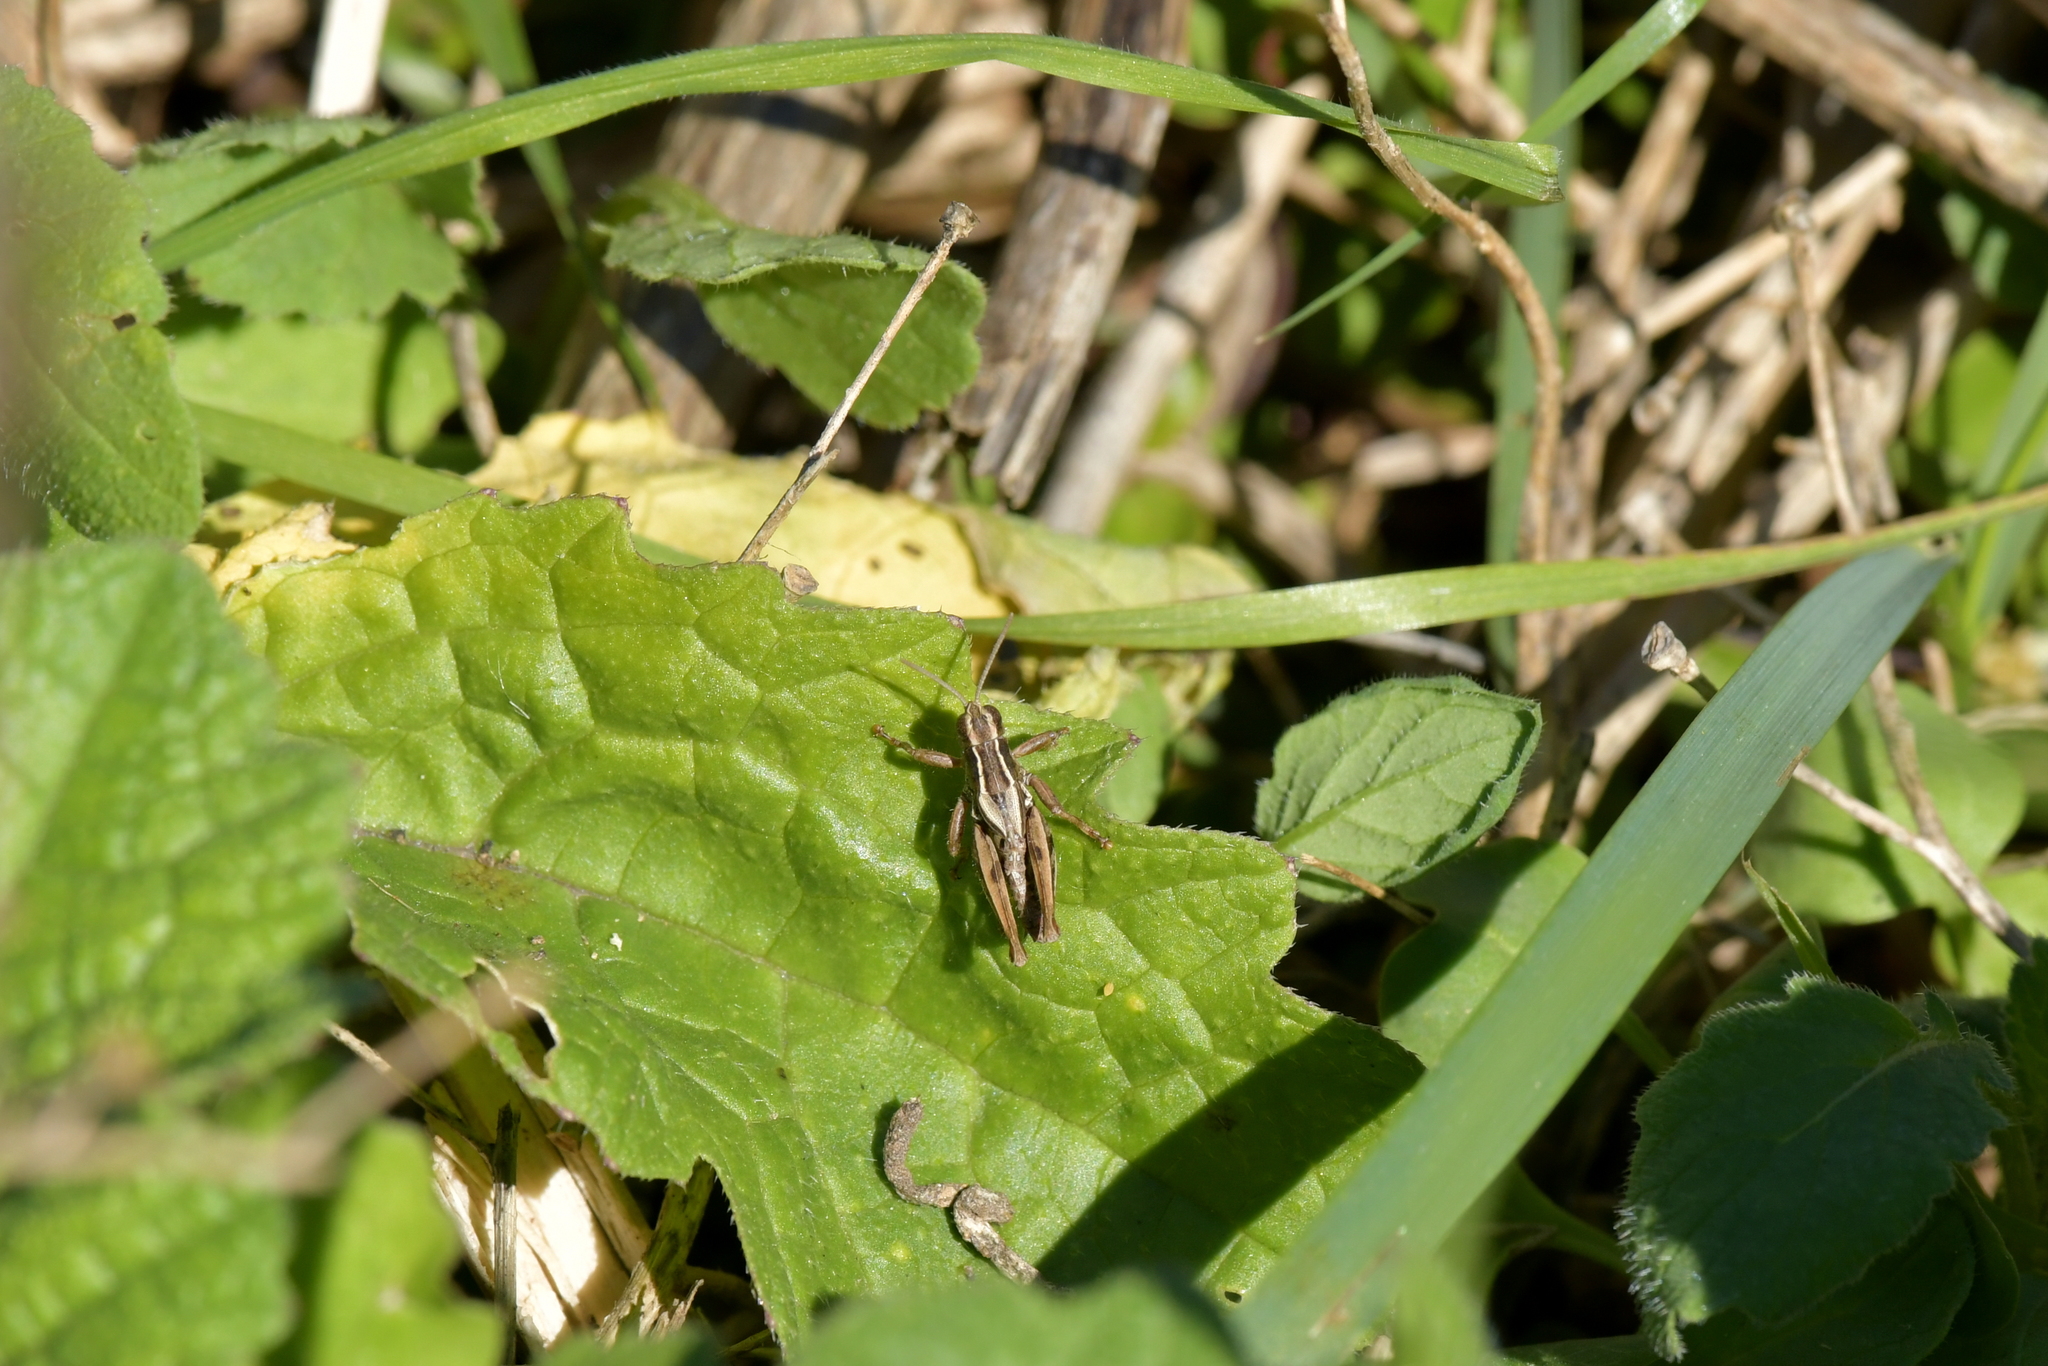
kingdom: Animalia
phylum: Arthropoda
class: Insecta
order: Orthoptera
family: Acrididae
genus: Phaulacridium
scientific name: Phaulacridium marginale
